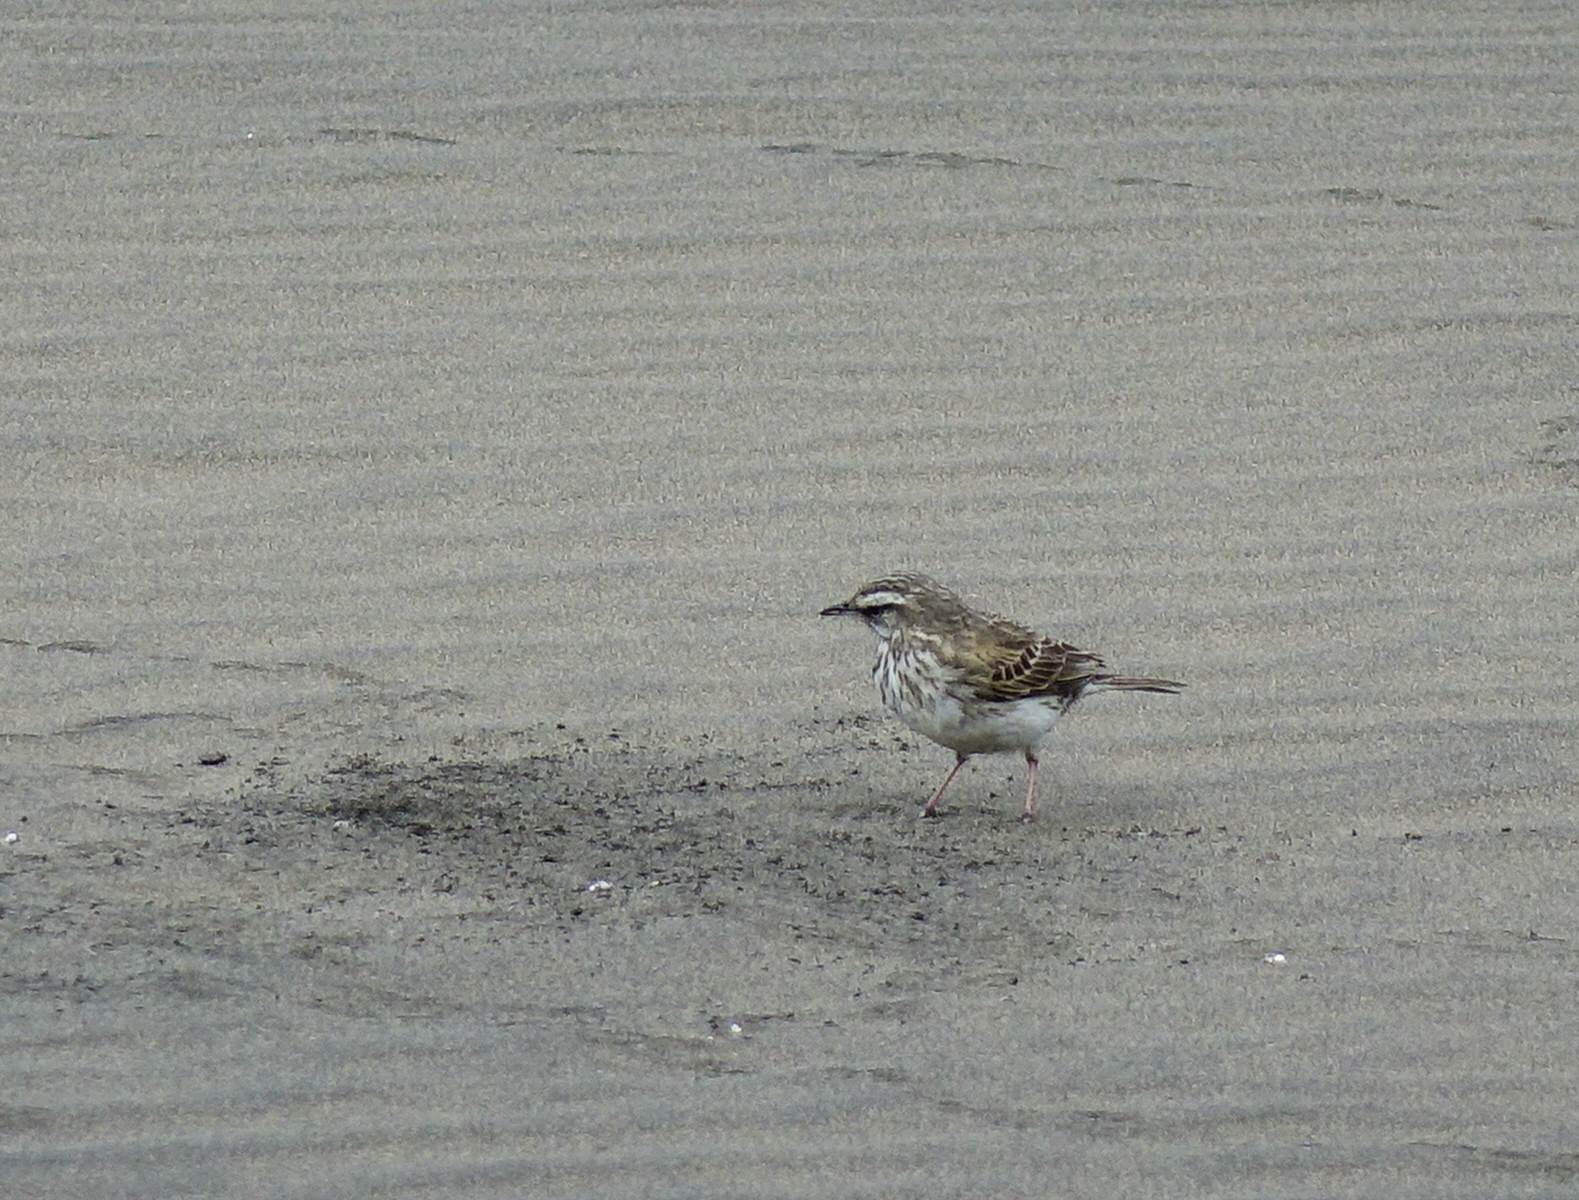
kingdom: Animalia
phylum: Chordata
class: Aves
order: Passeriformes
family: Motacillidae
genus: Anthus
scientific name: Anthus novaeseelandiae
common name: New zealand pipit
